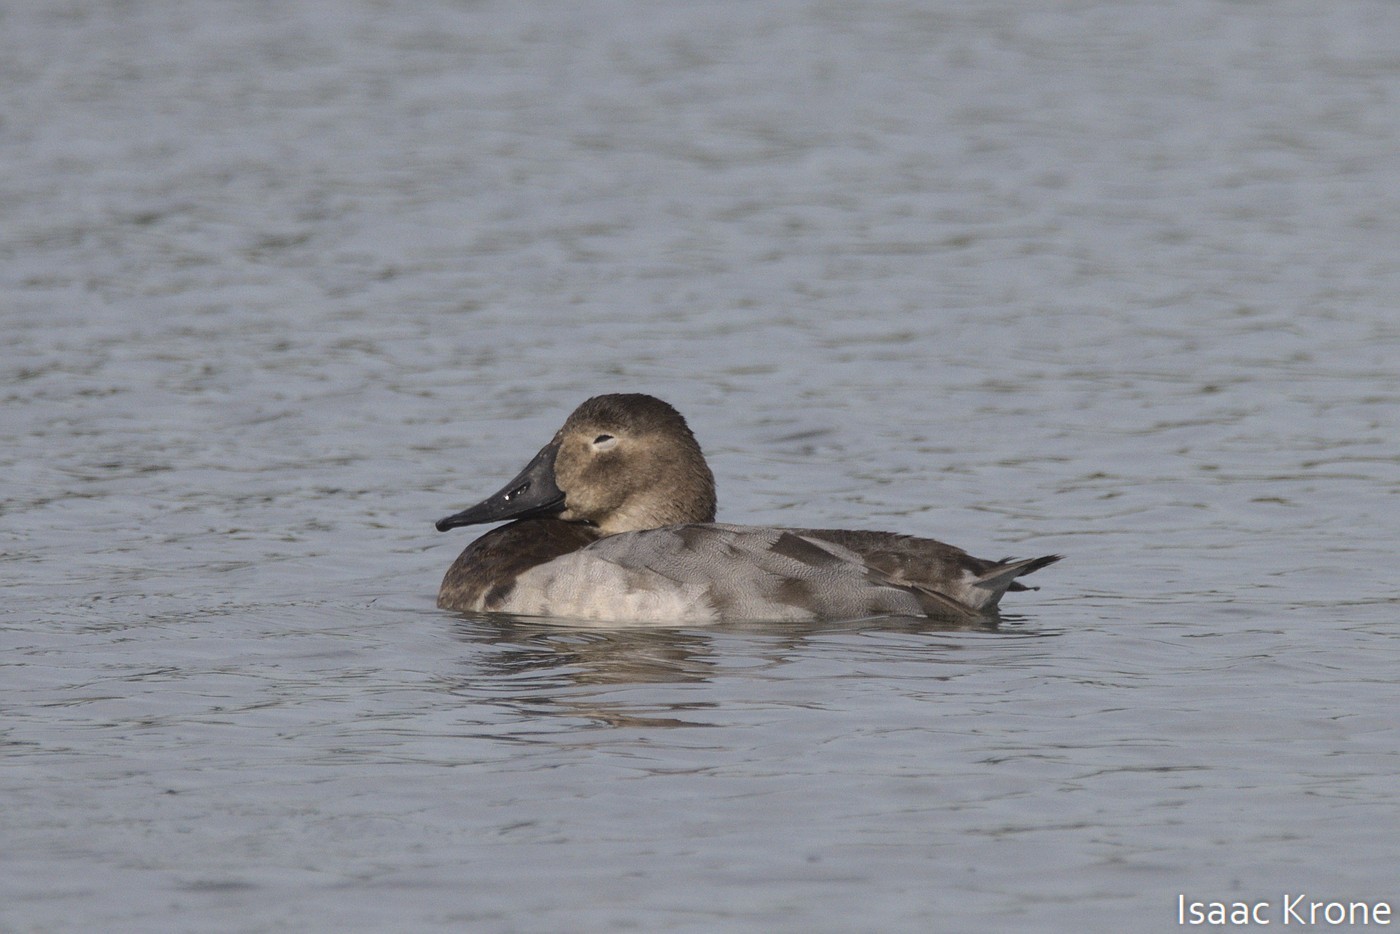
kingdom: Animalia
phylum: Chordata
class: Aves
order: Anseriformes
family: Anatidae
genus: Aythya
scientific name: Aythya valisineria
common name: Canvasback
